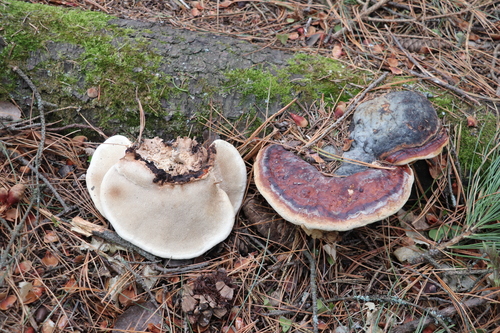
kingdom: Fungi
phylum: Basidiomycota
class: Agaricomycetes
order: Polyporales
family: Fomitopsidaceae
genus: Fomitopsis
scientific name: Fomitopsis pinicola
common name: Red-belted bracket
